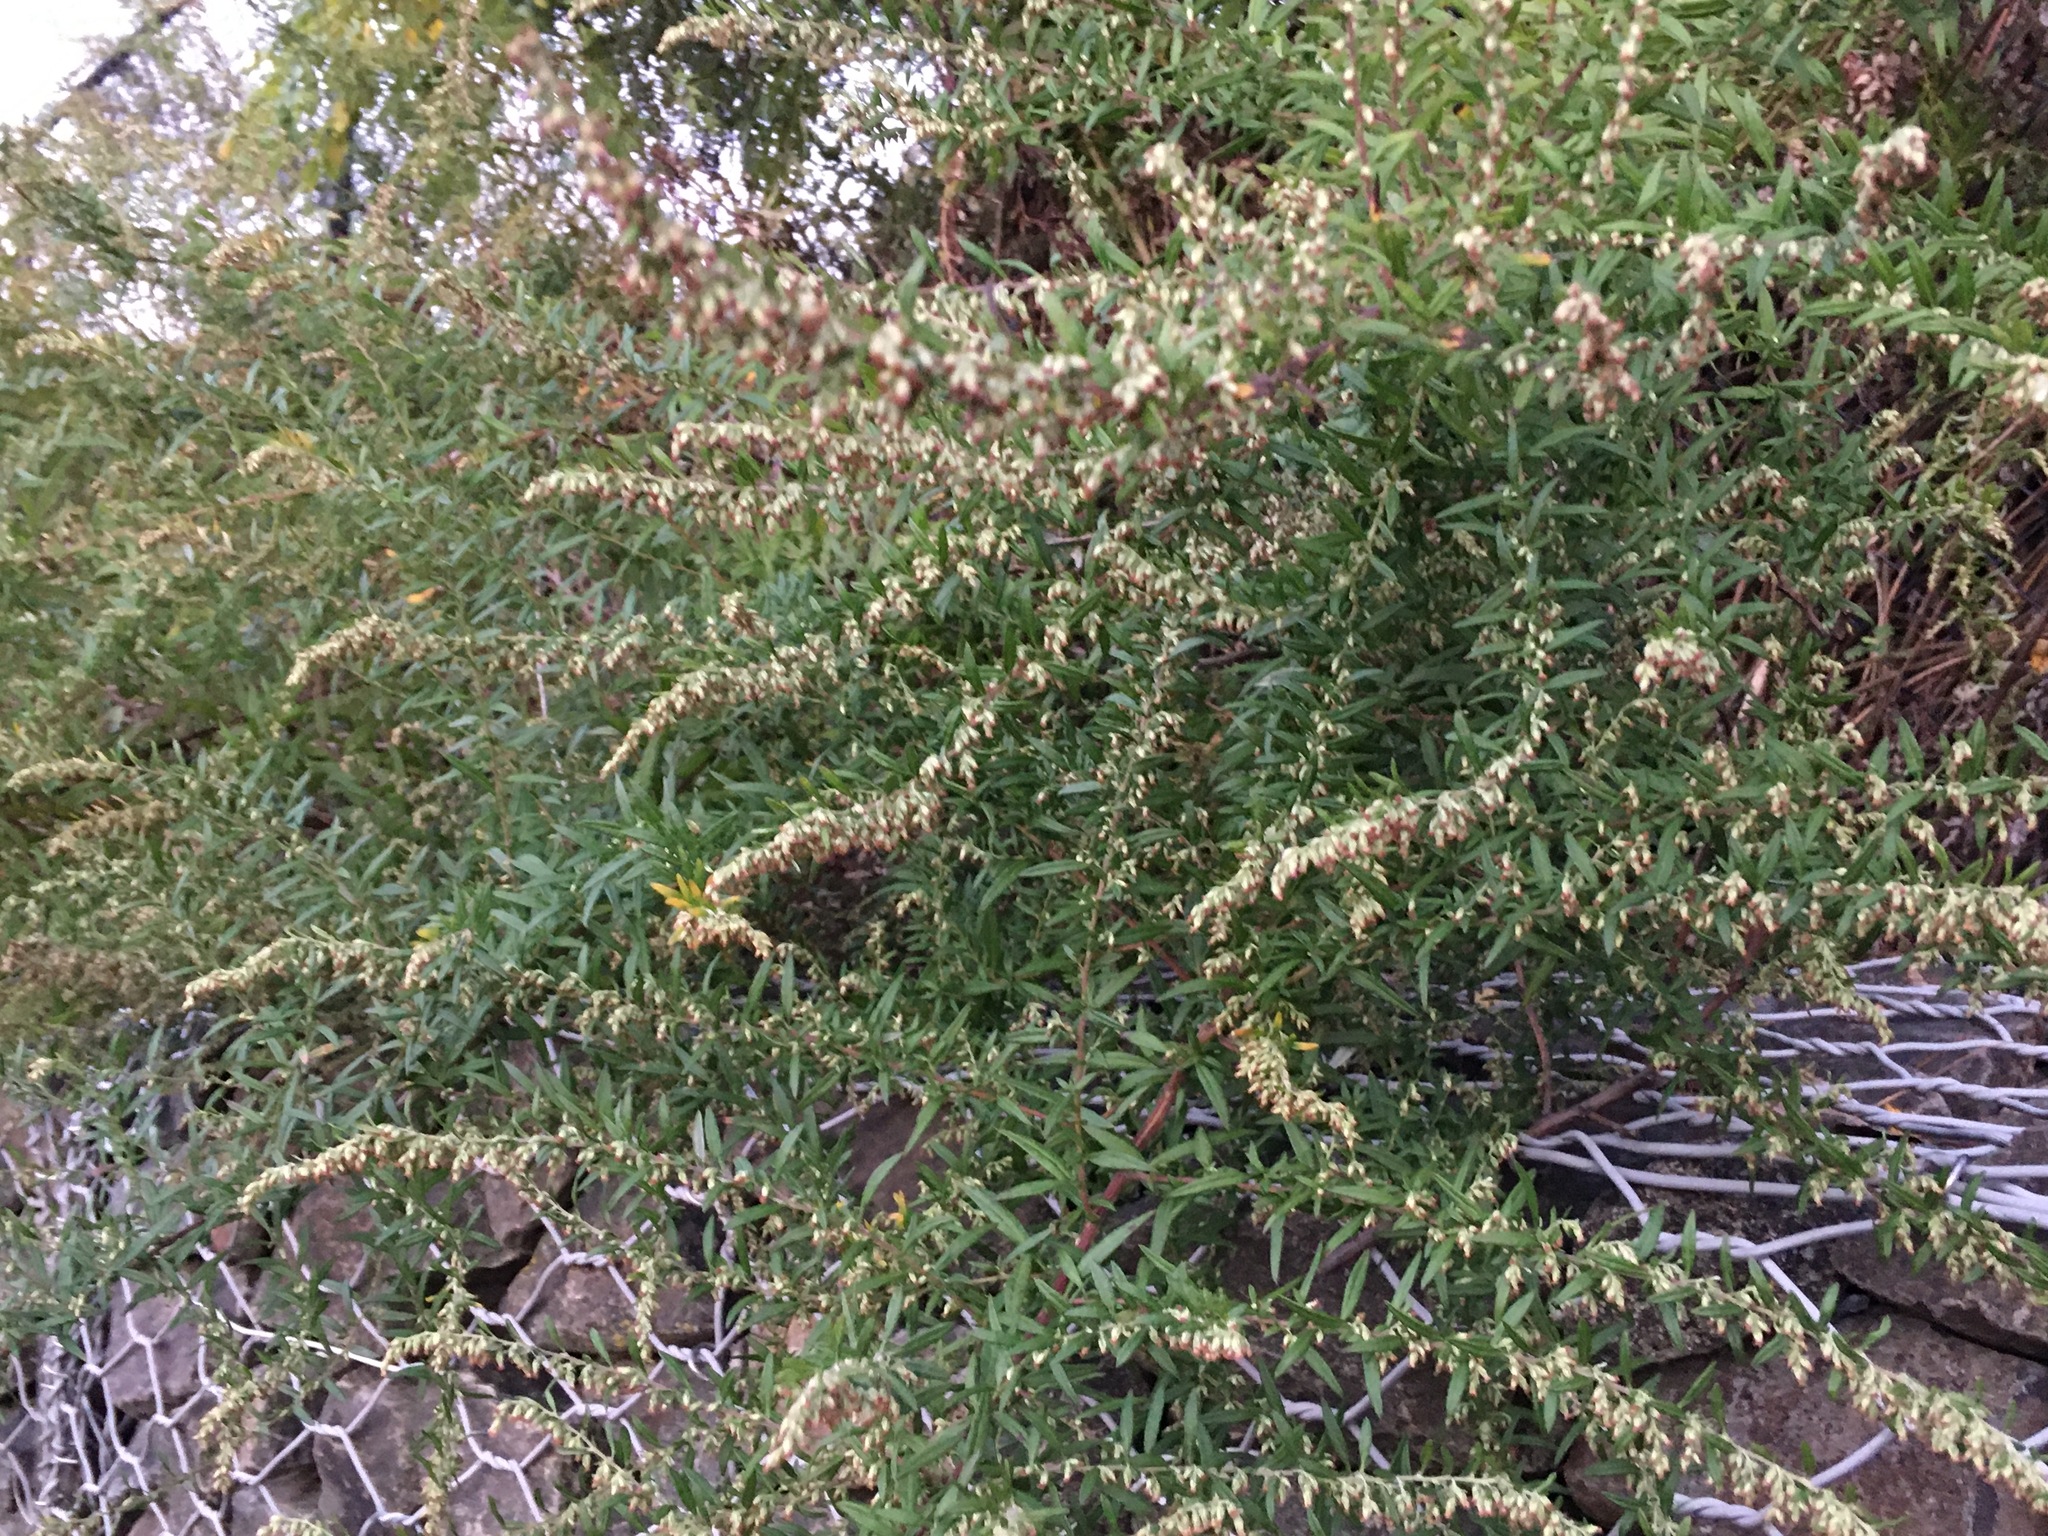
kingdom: Plantae
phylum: Tracheophyta
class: Magnoliopsida
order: Asterales
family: Asteraceae
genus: Artemisia
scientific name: Artemisia vulgaris
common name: Mugwort
